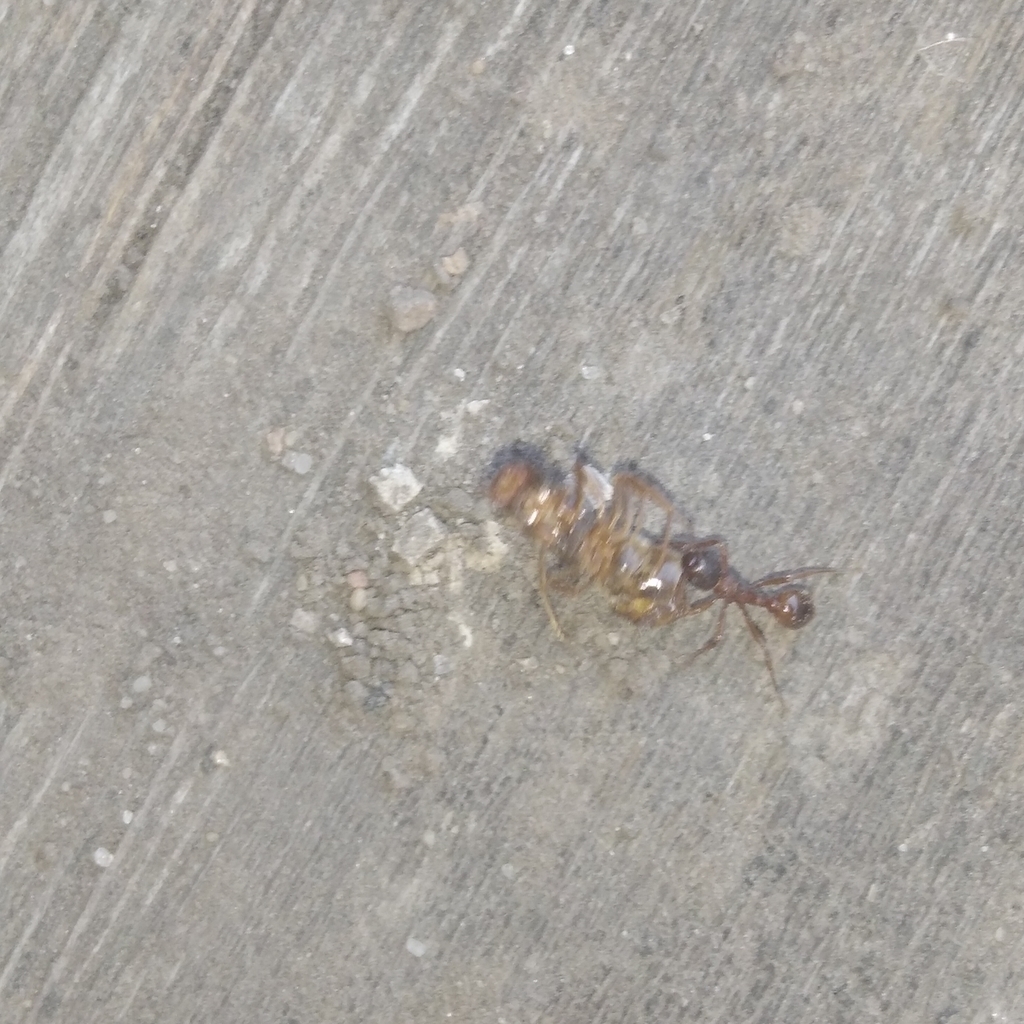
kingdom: Animalia
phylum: Arthropoda
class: Insecta
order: Hymenoptera
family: Formicidae
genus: Myrmica
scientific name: Myrmica
